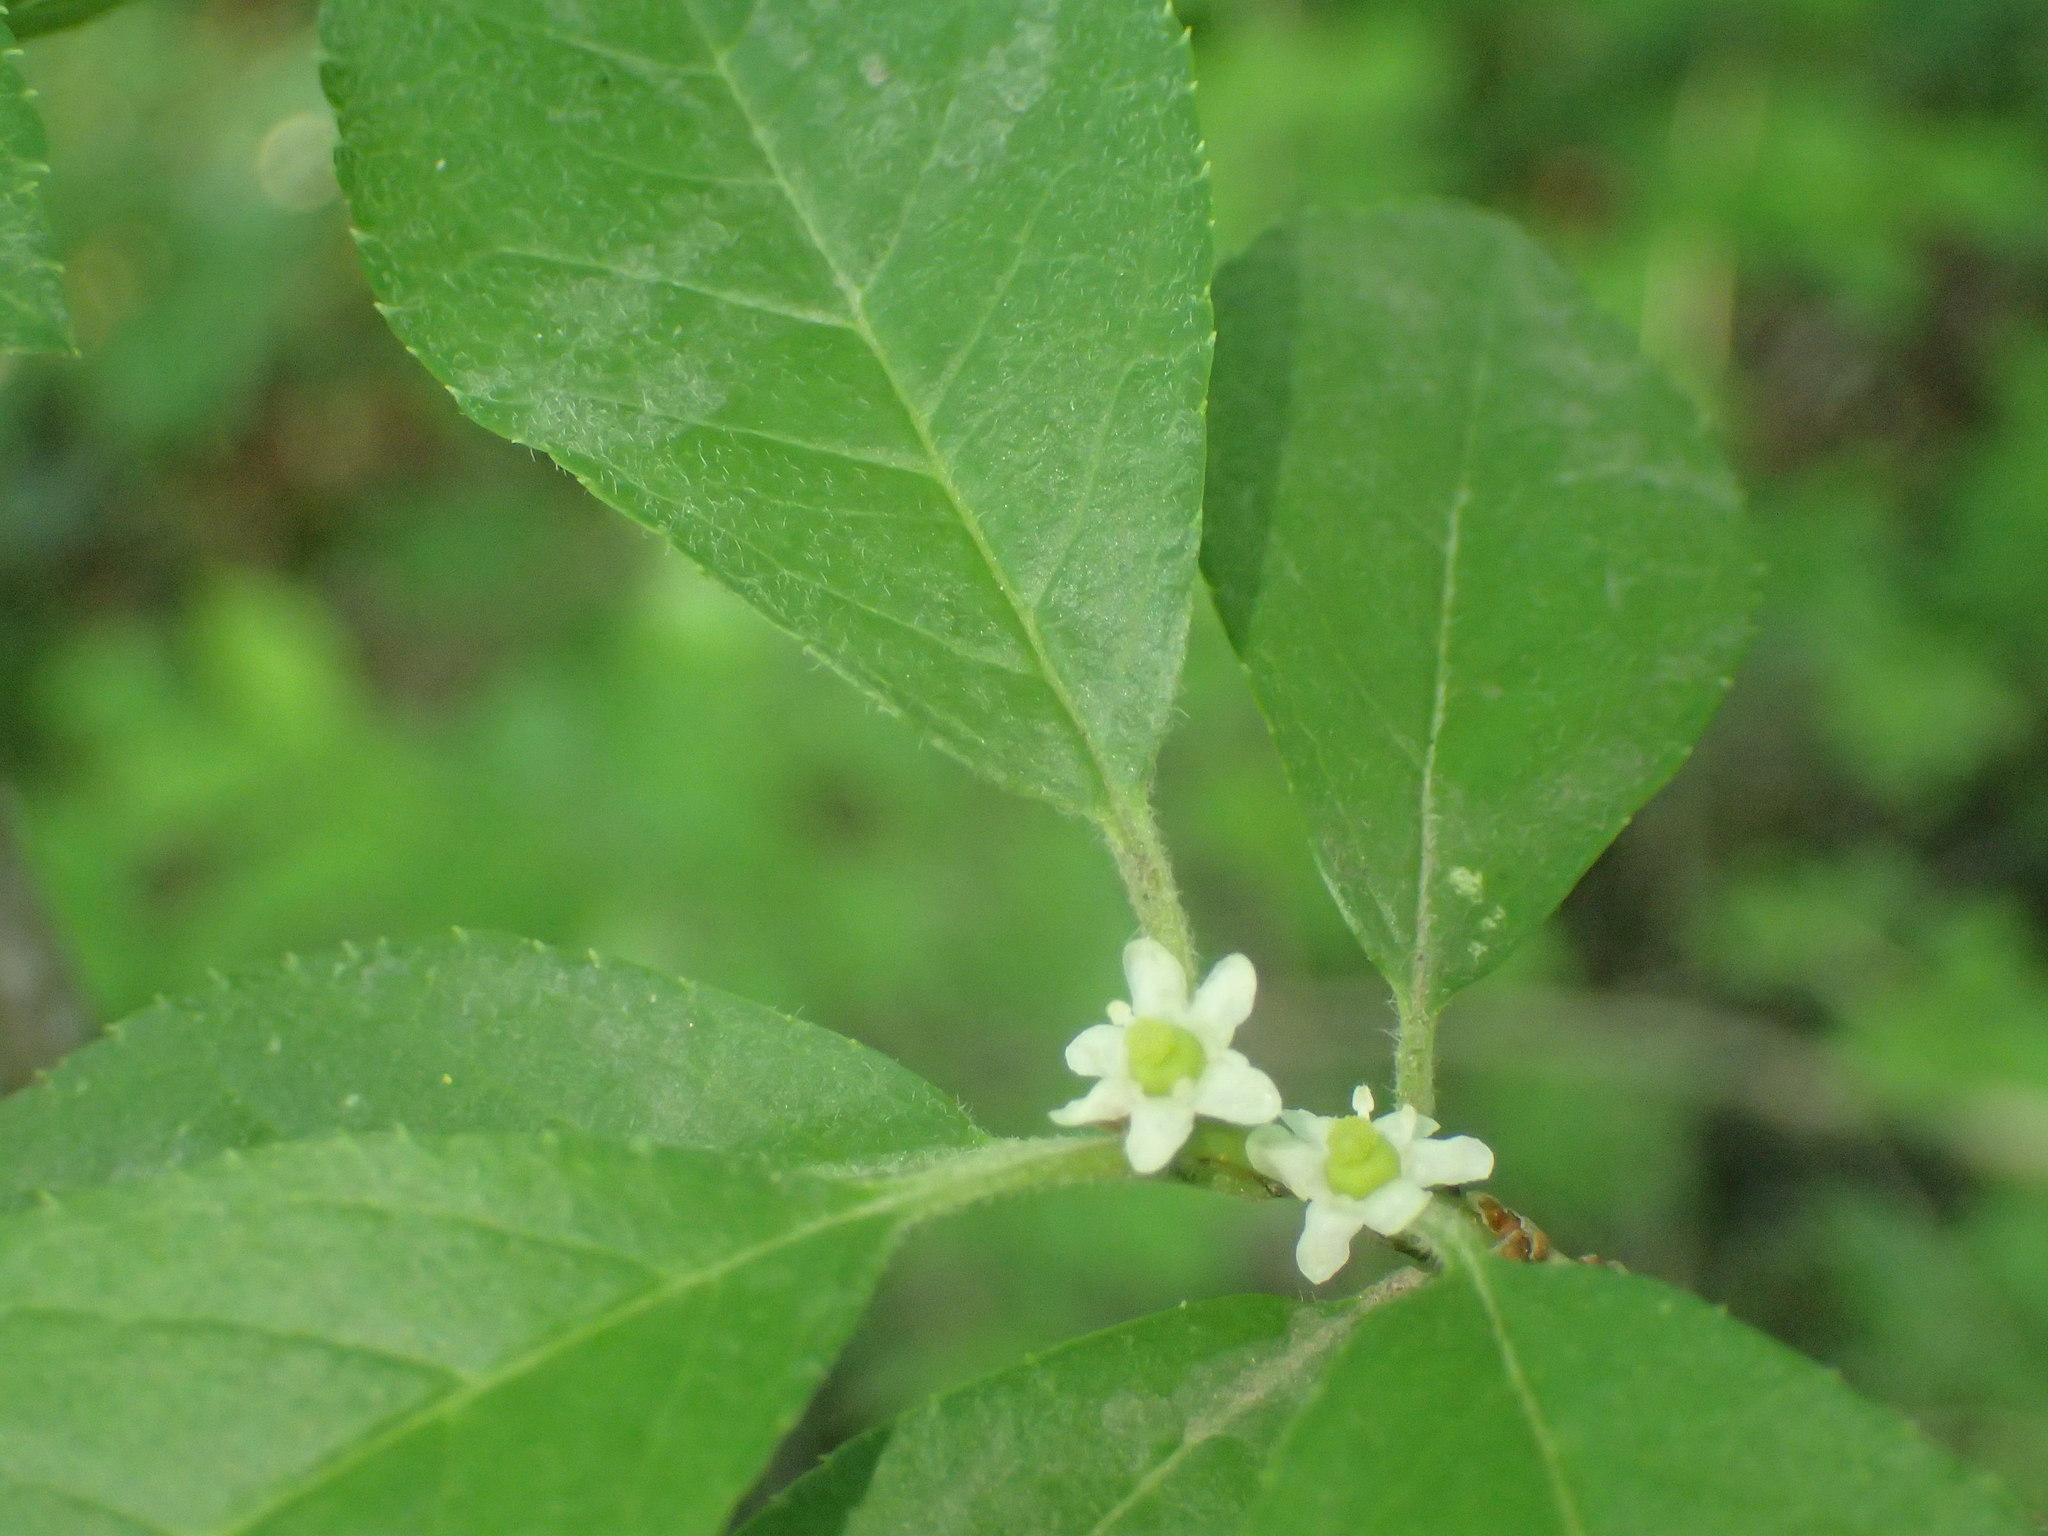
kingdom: Plantae
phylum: Tracheophyta
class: Magnoliopsida
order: Aquifoliales
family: Aquifoliaceae
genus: Ilex
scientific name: Ilex verticillata
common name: Virginia winterberry
